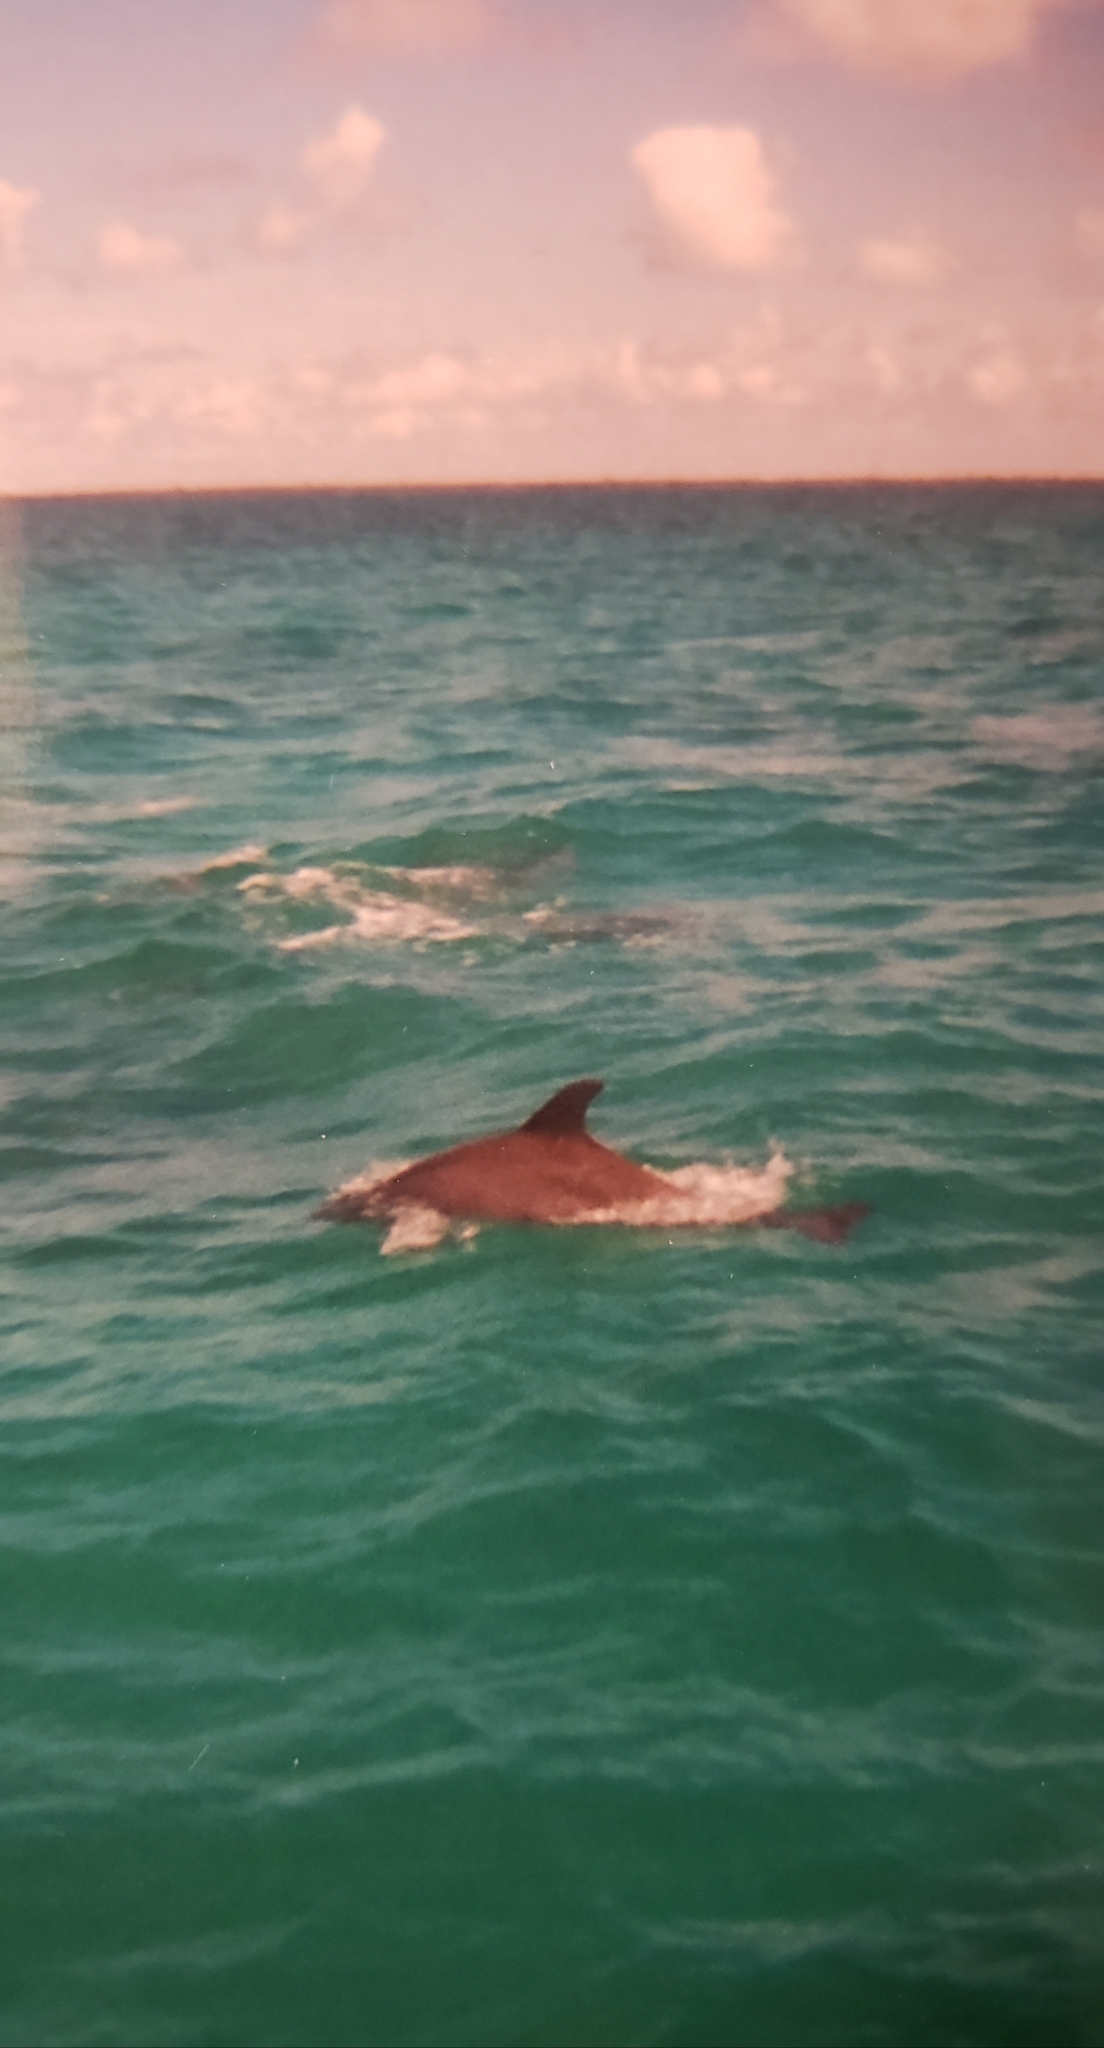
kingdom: Animalia
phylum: Chordata
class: Mammalia
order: Cetacea
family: Delphinidae
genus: Tursiops
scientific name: Tursiops truncatus
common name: Bottlenose dolphin
